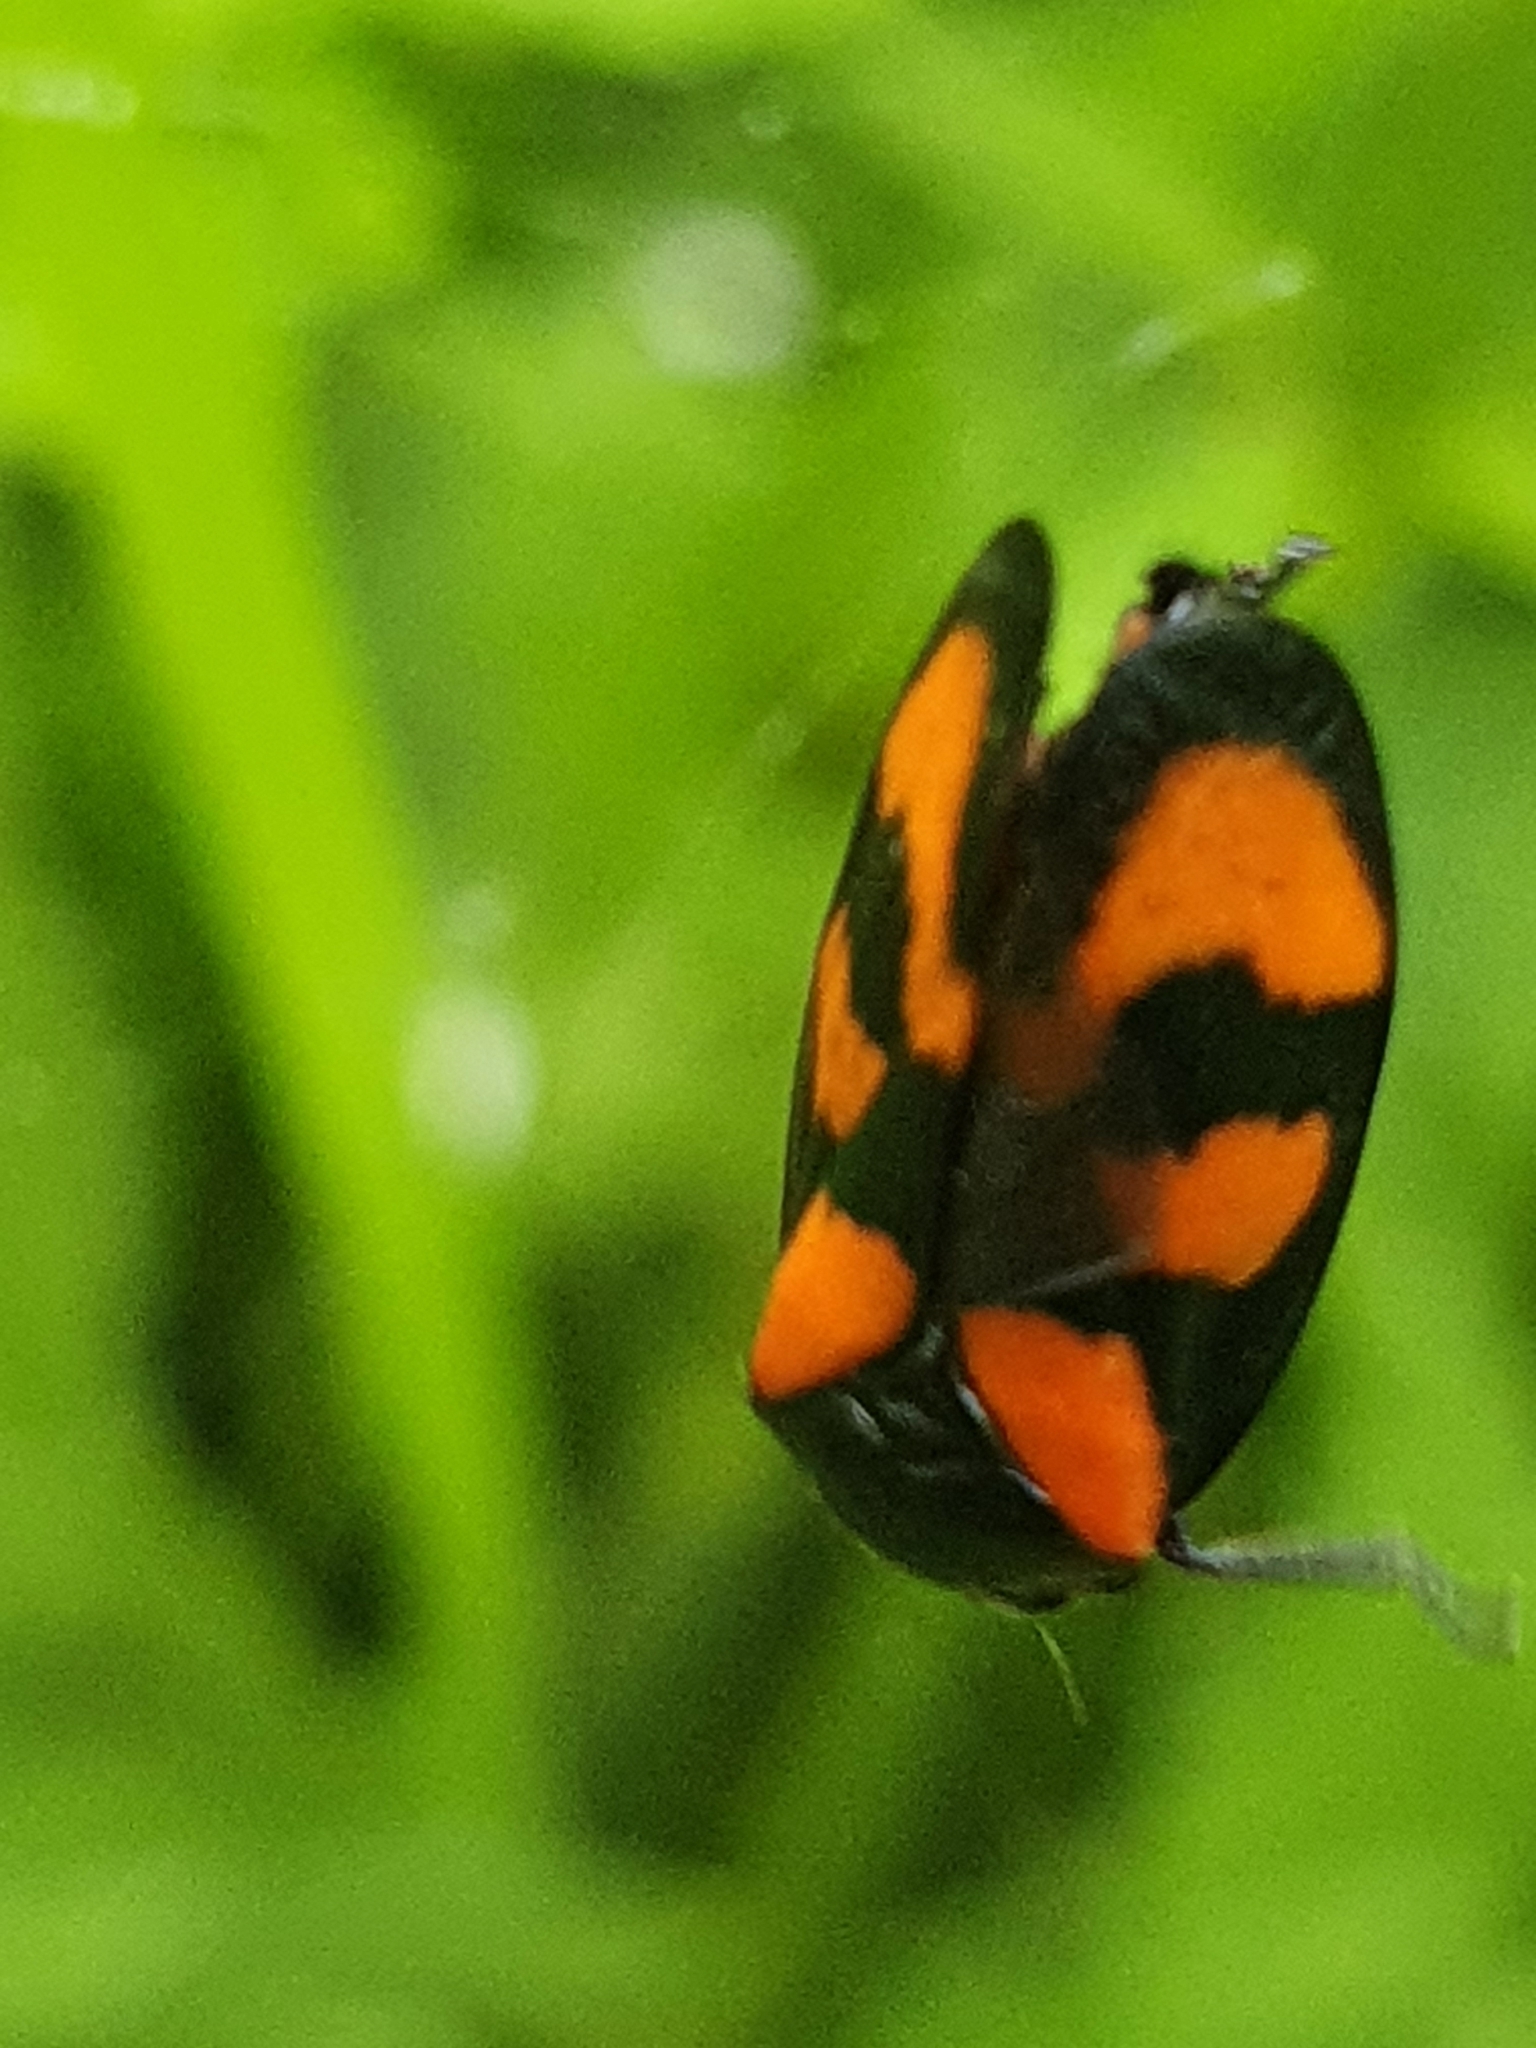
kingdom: Animalia
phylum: Arthropoda
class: Insecta
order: Hemiptera
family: Cercopidae
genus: Cercopis
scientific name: Cercopis vulnerata
